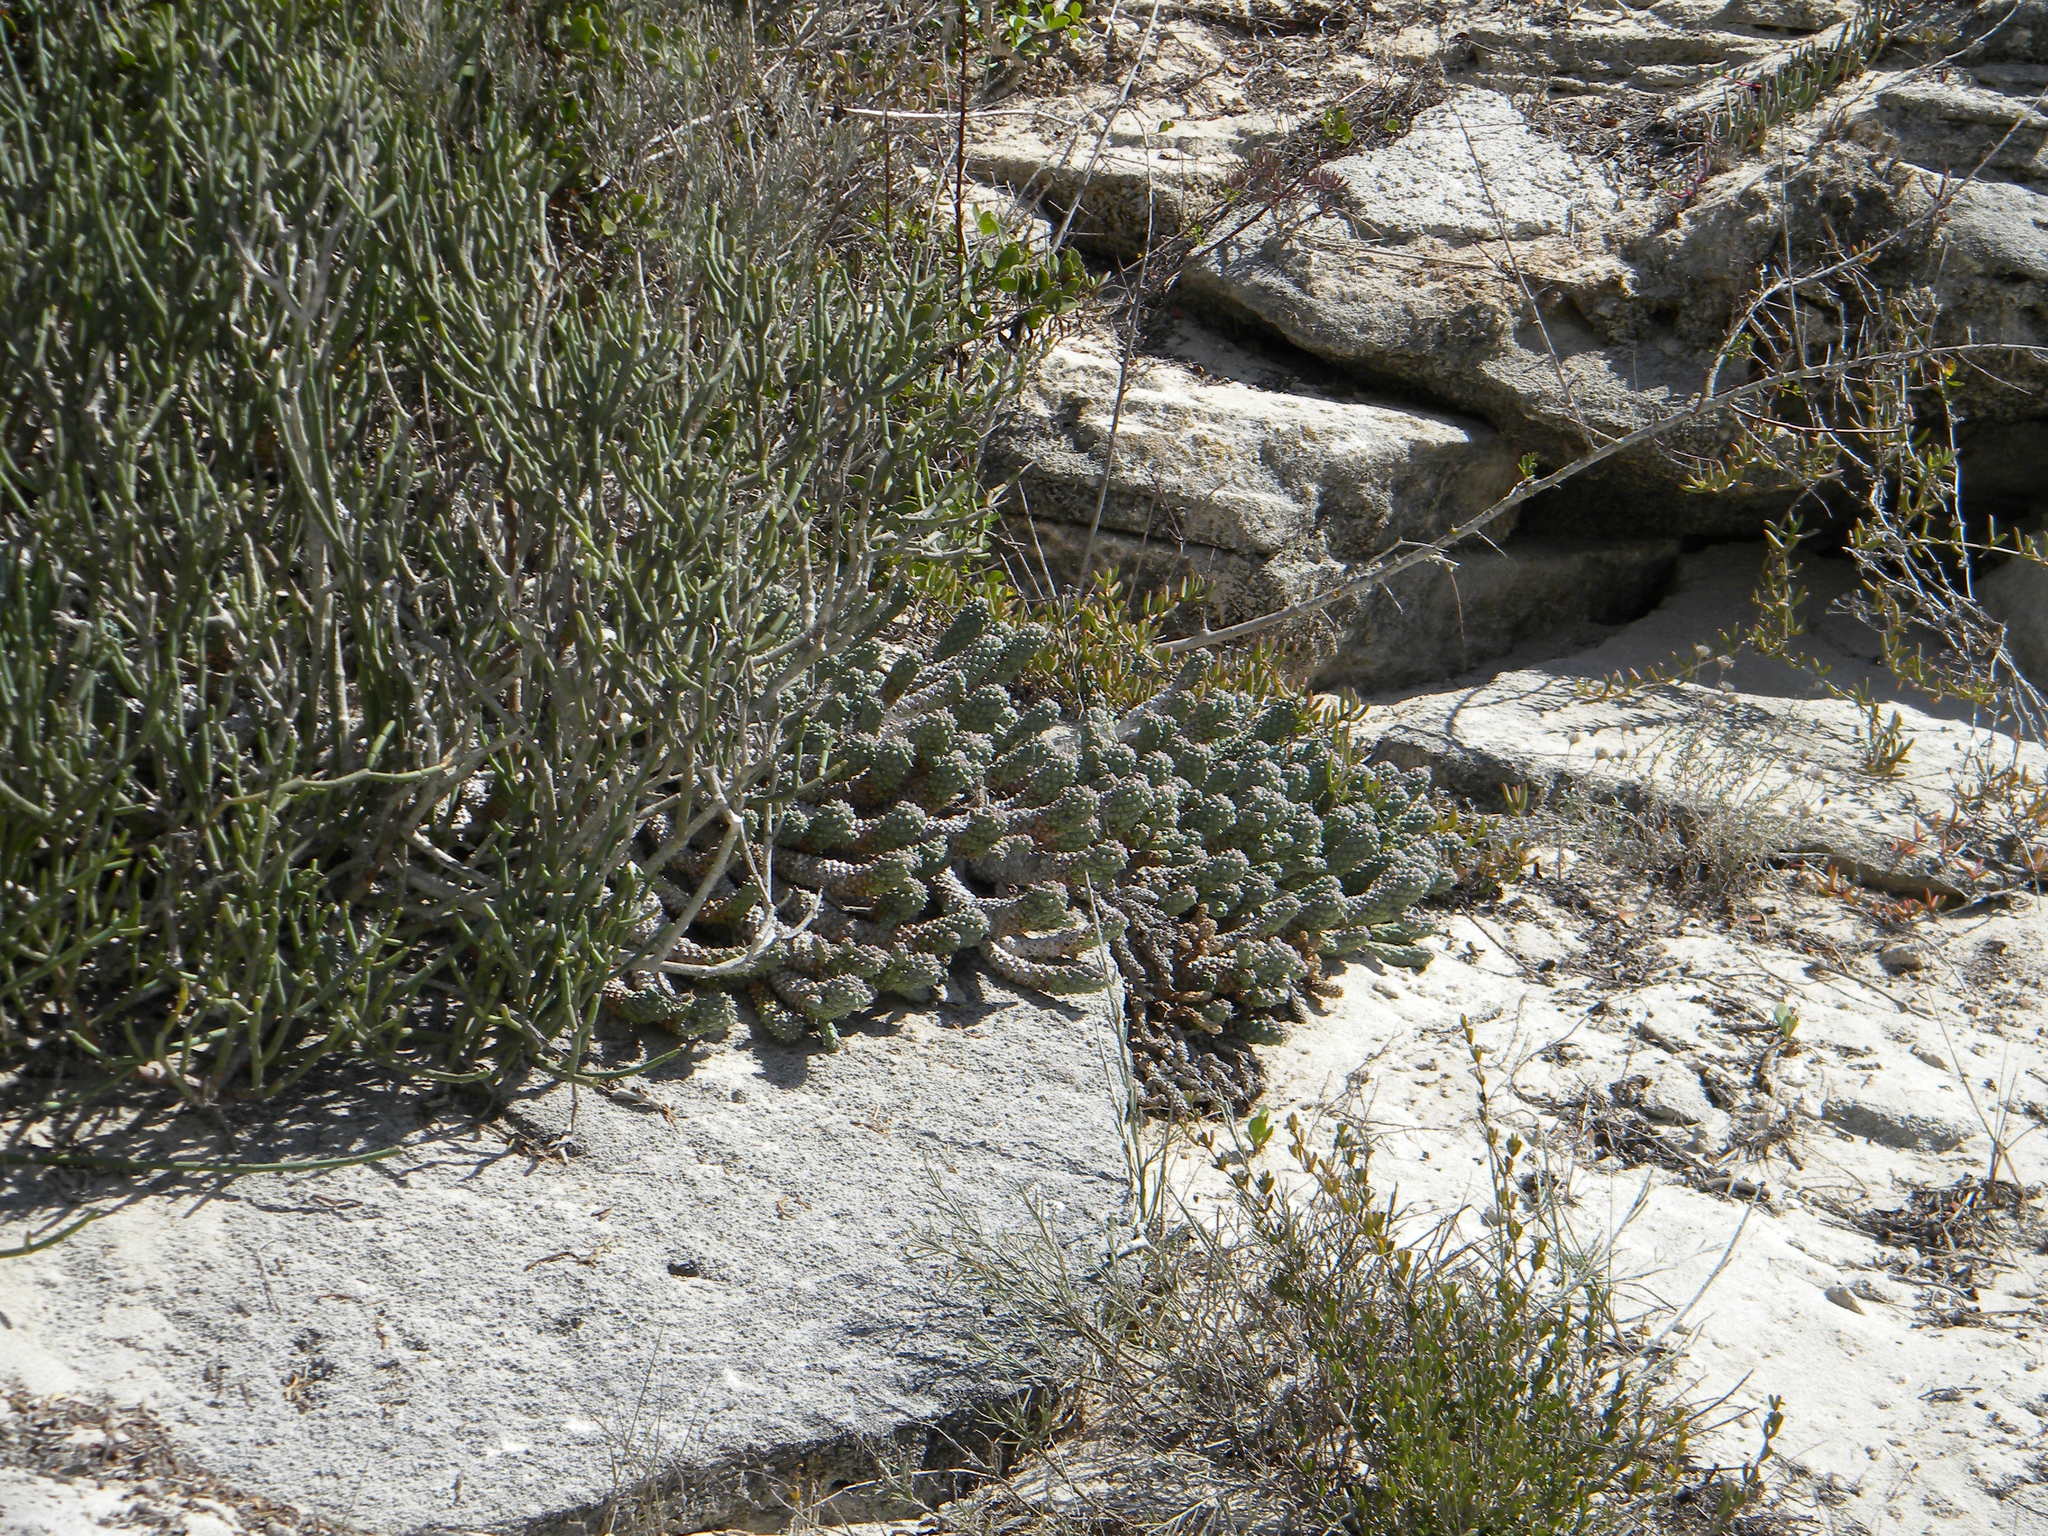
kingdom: Plantae
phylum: Tracheophyta
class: Magnoliopsida
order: Malpighiales
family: Euphorbiaceae
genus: Euphorbia
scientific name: Euphorbia caput-medusae
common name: Medusa's-head
